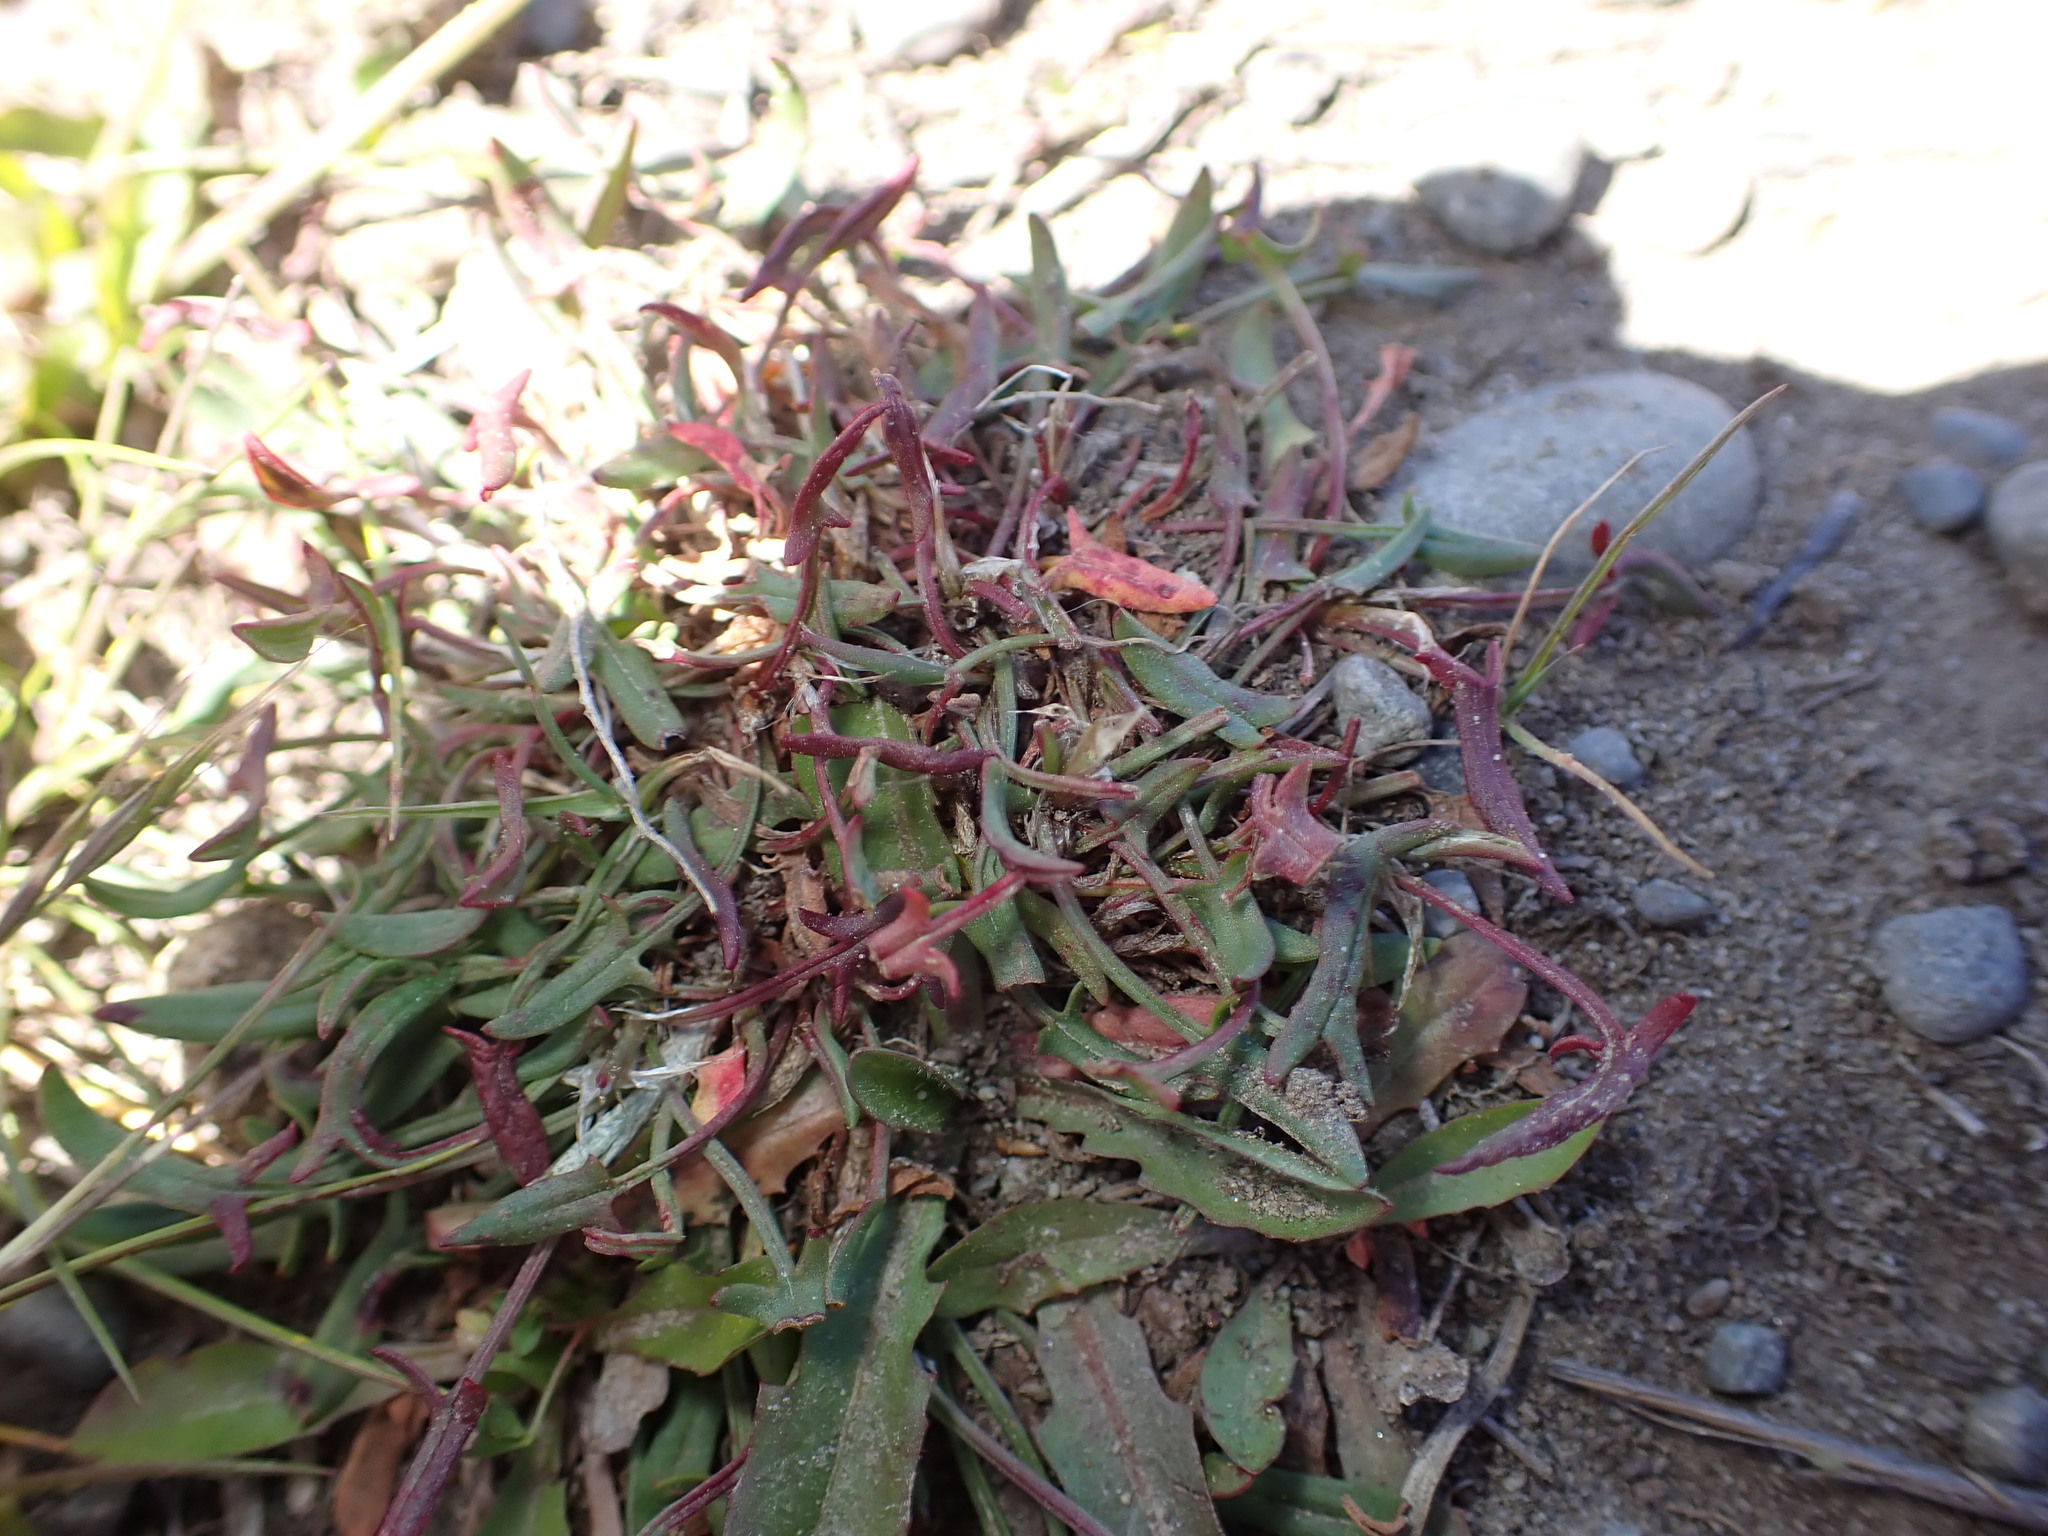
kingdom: Plantae
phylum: Tracheophyta
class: Magnoliopsida
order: Caryophyllales
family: Polygonaceae
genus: Rumex
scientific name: Rumex acetosella
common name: Common sheep sorrel
